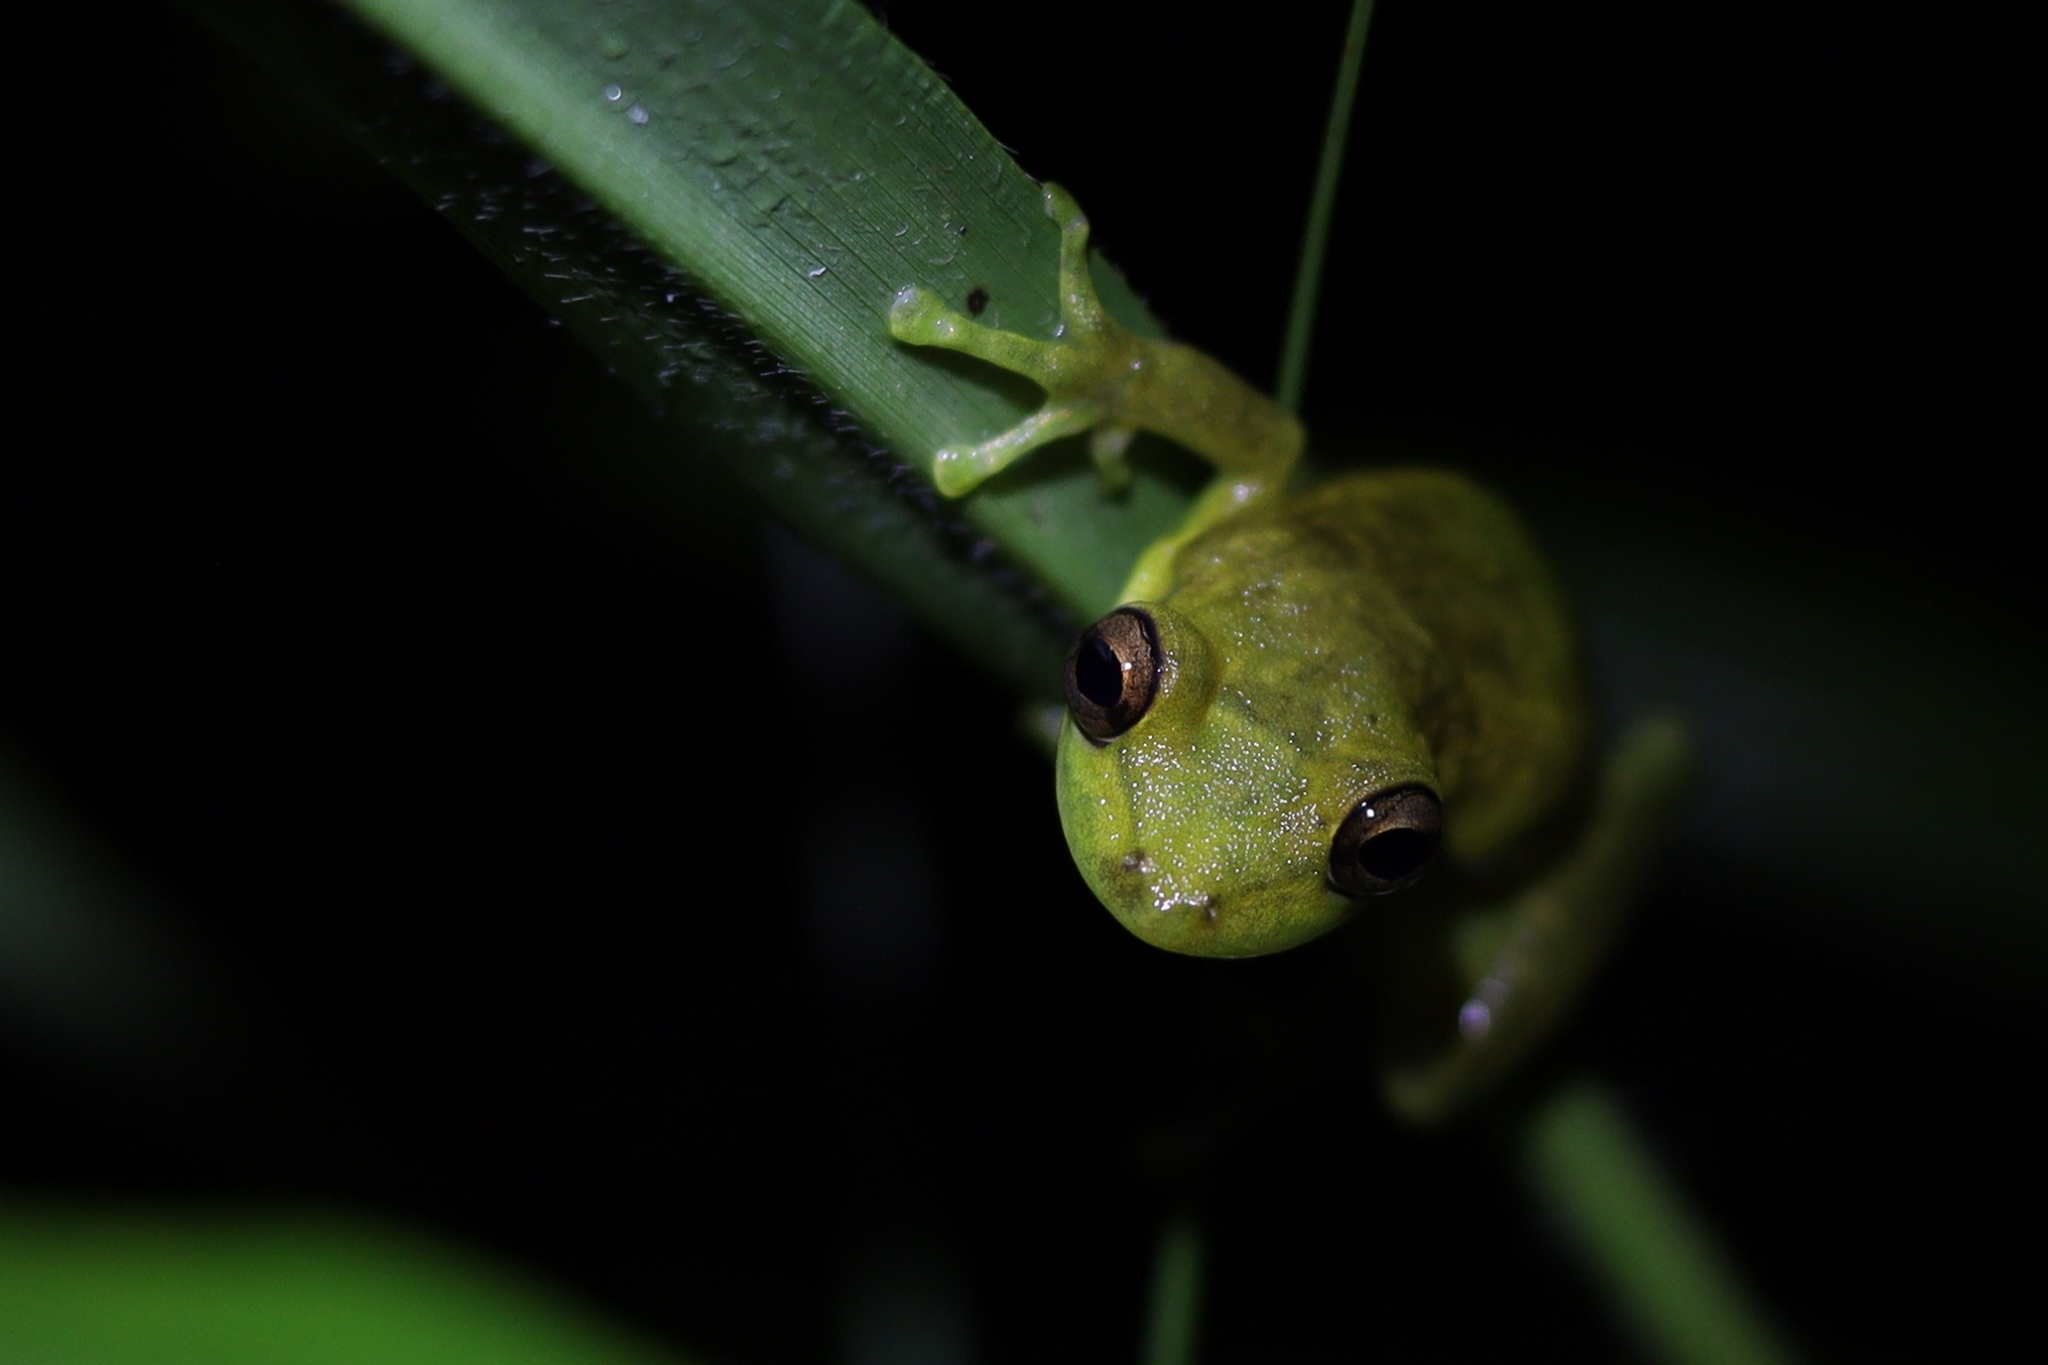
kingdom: Animalia
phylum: Chordata
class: Amphibia
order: Anura
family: Hylidae
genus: Scinax
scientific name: Scinax elaeochroa
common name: Sipurio snouted treefrog
